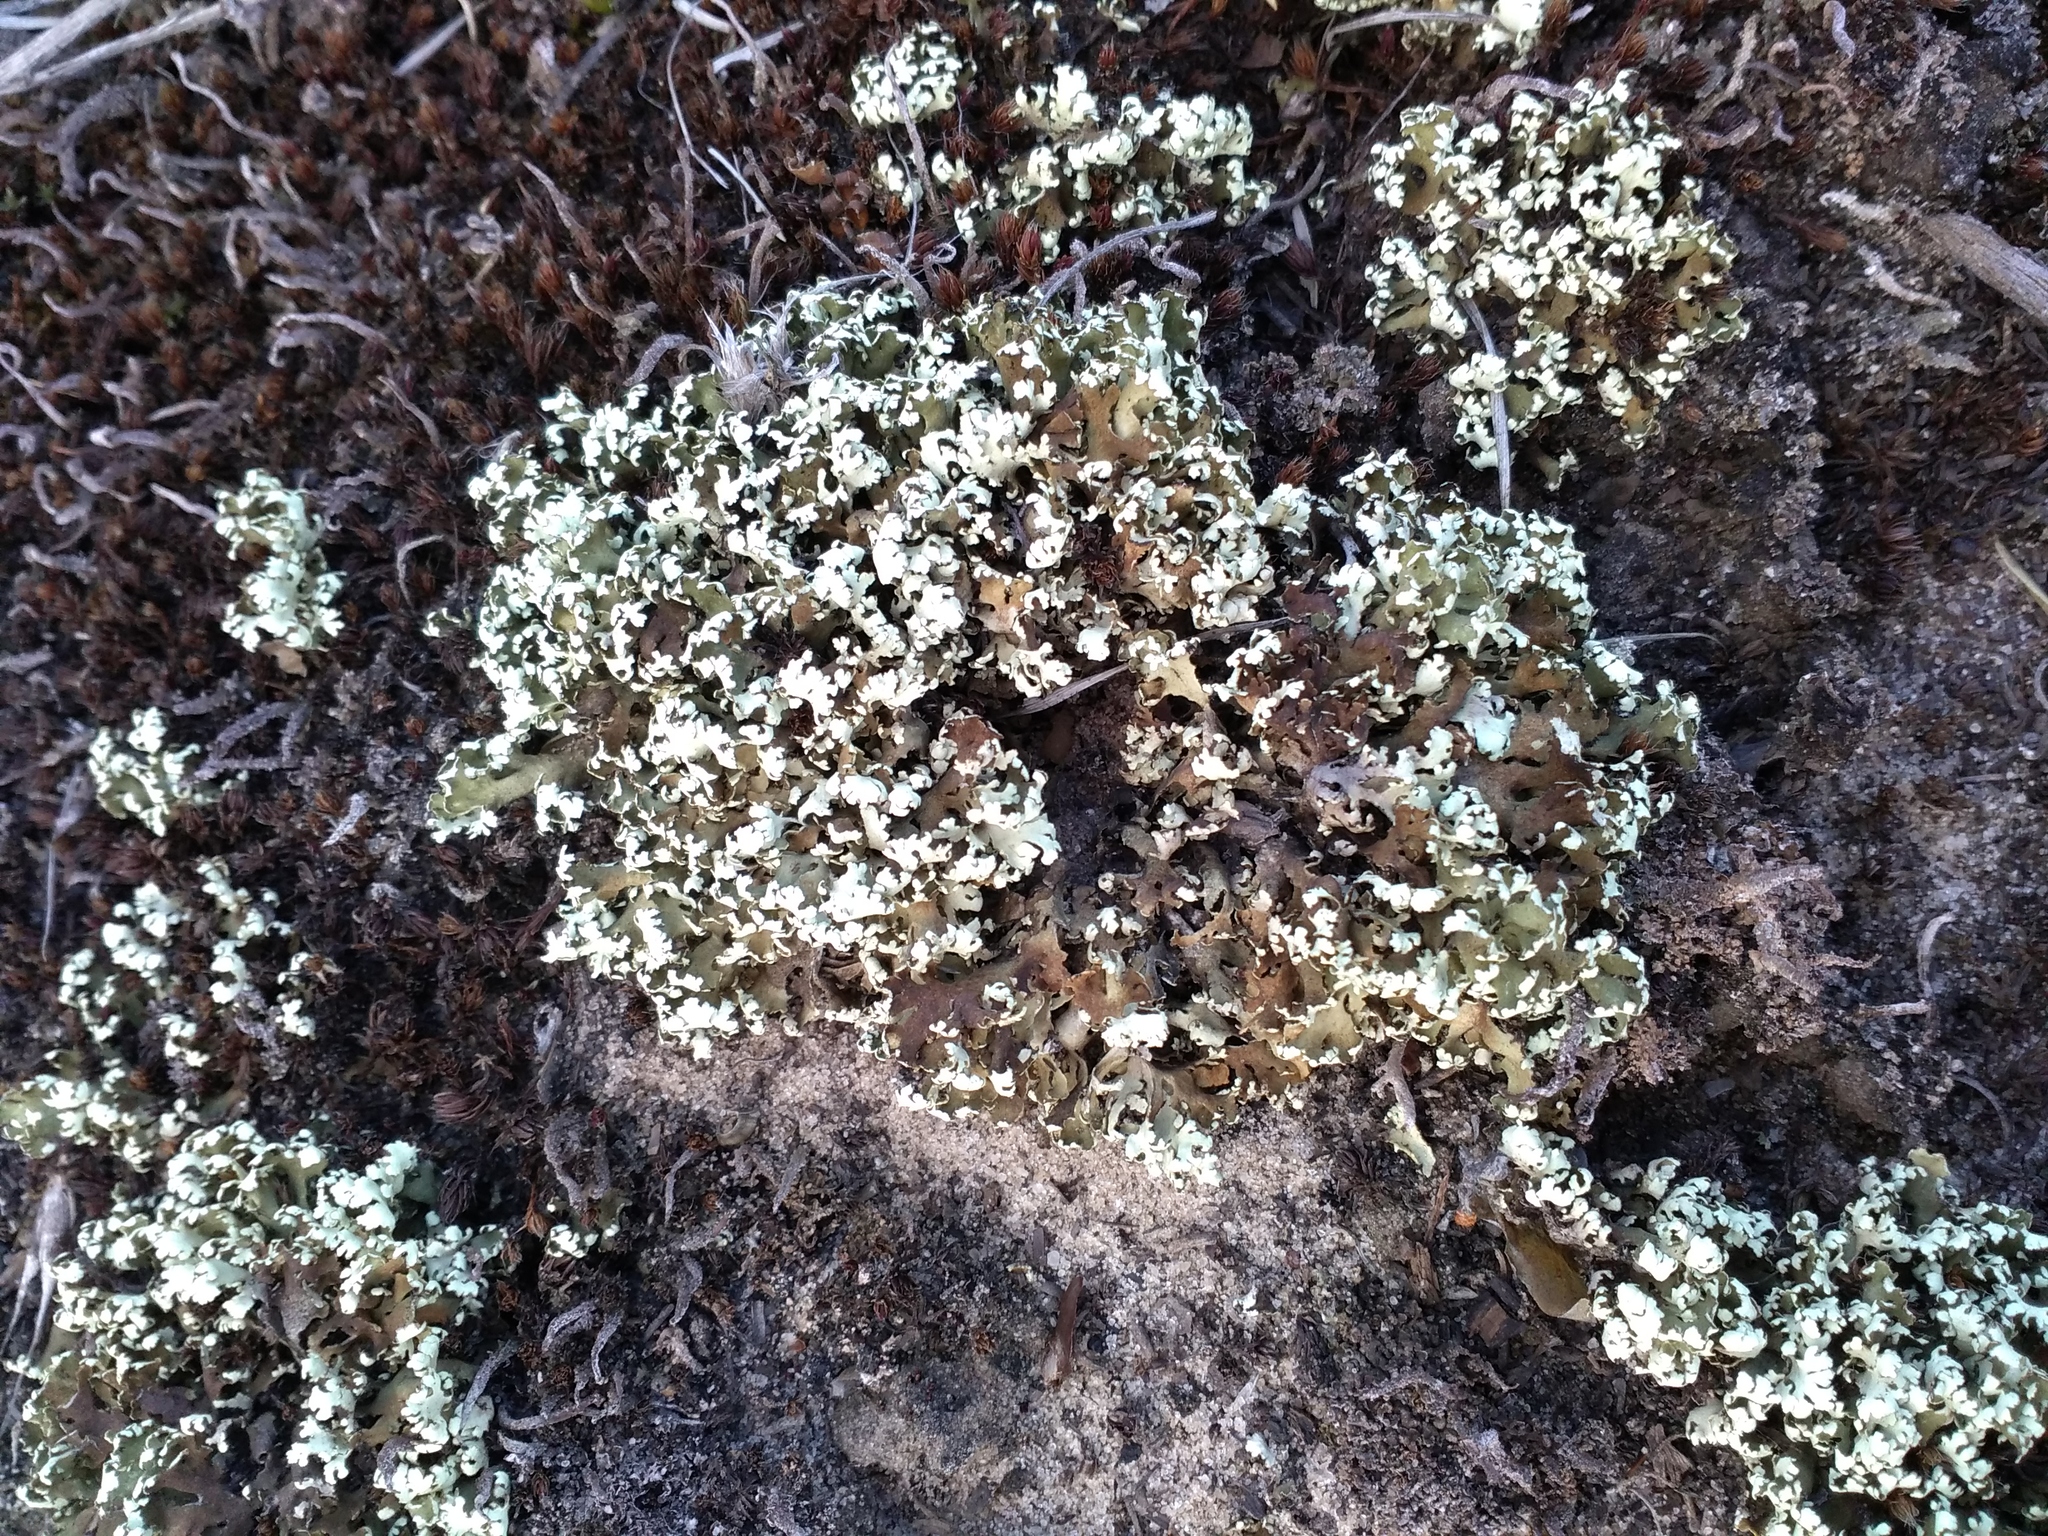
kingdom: Fungi
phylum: Ascomycota
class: Lecanoromycetes
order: Lecanorales
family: Cladoniaceae
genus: Cladonia
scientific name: Cladonia foliacea
